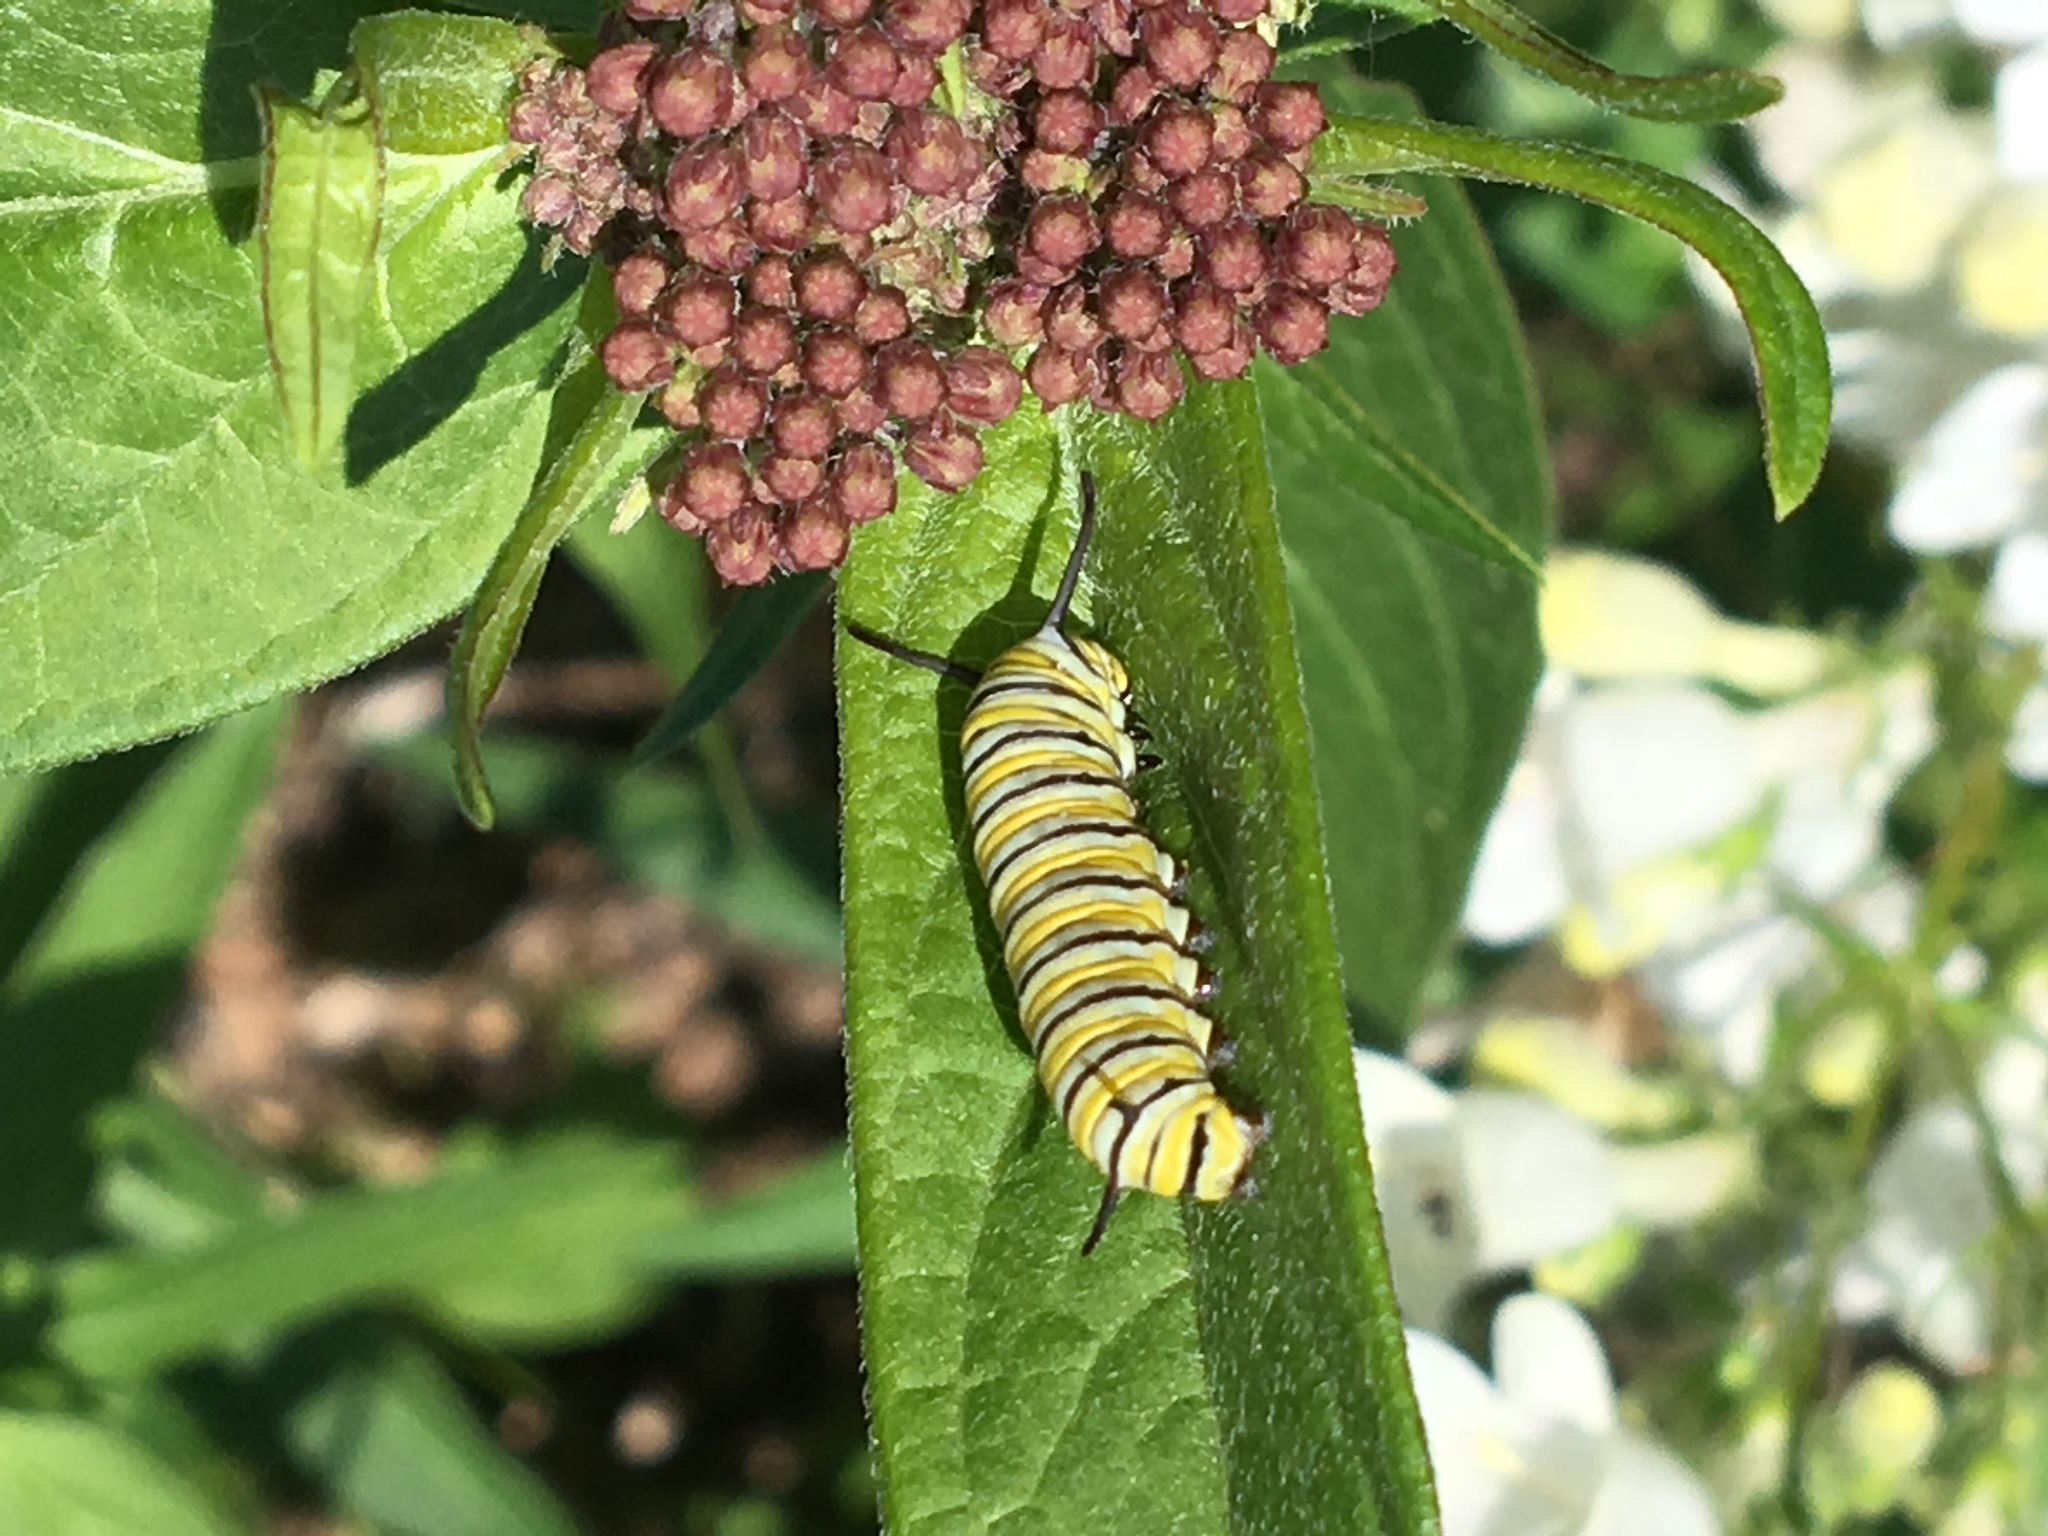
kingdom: Animalia
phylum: Arthropoda
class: Insecta
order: Lepidoptera
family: Nymphalidae
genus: Danaus
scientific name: Danaus plexippus
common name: Monarch
